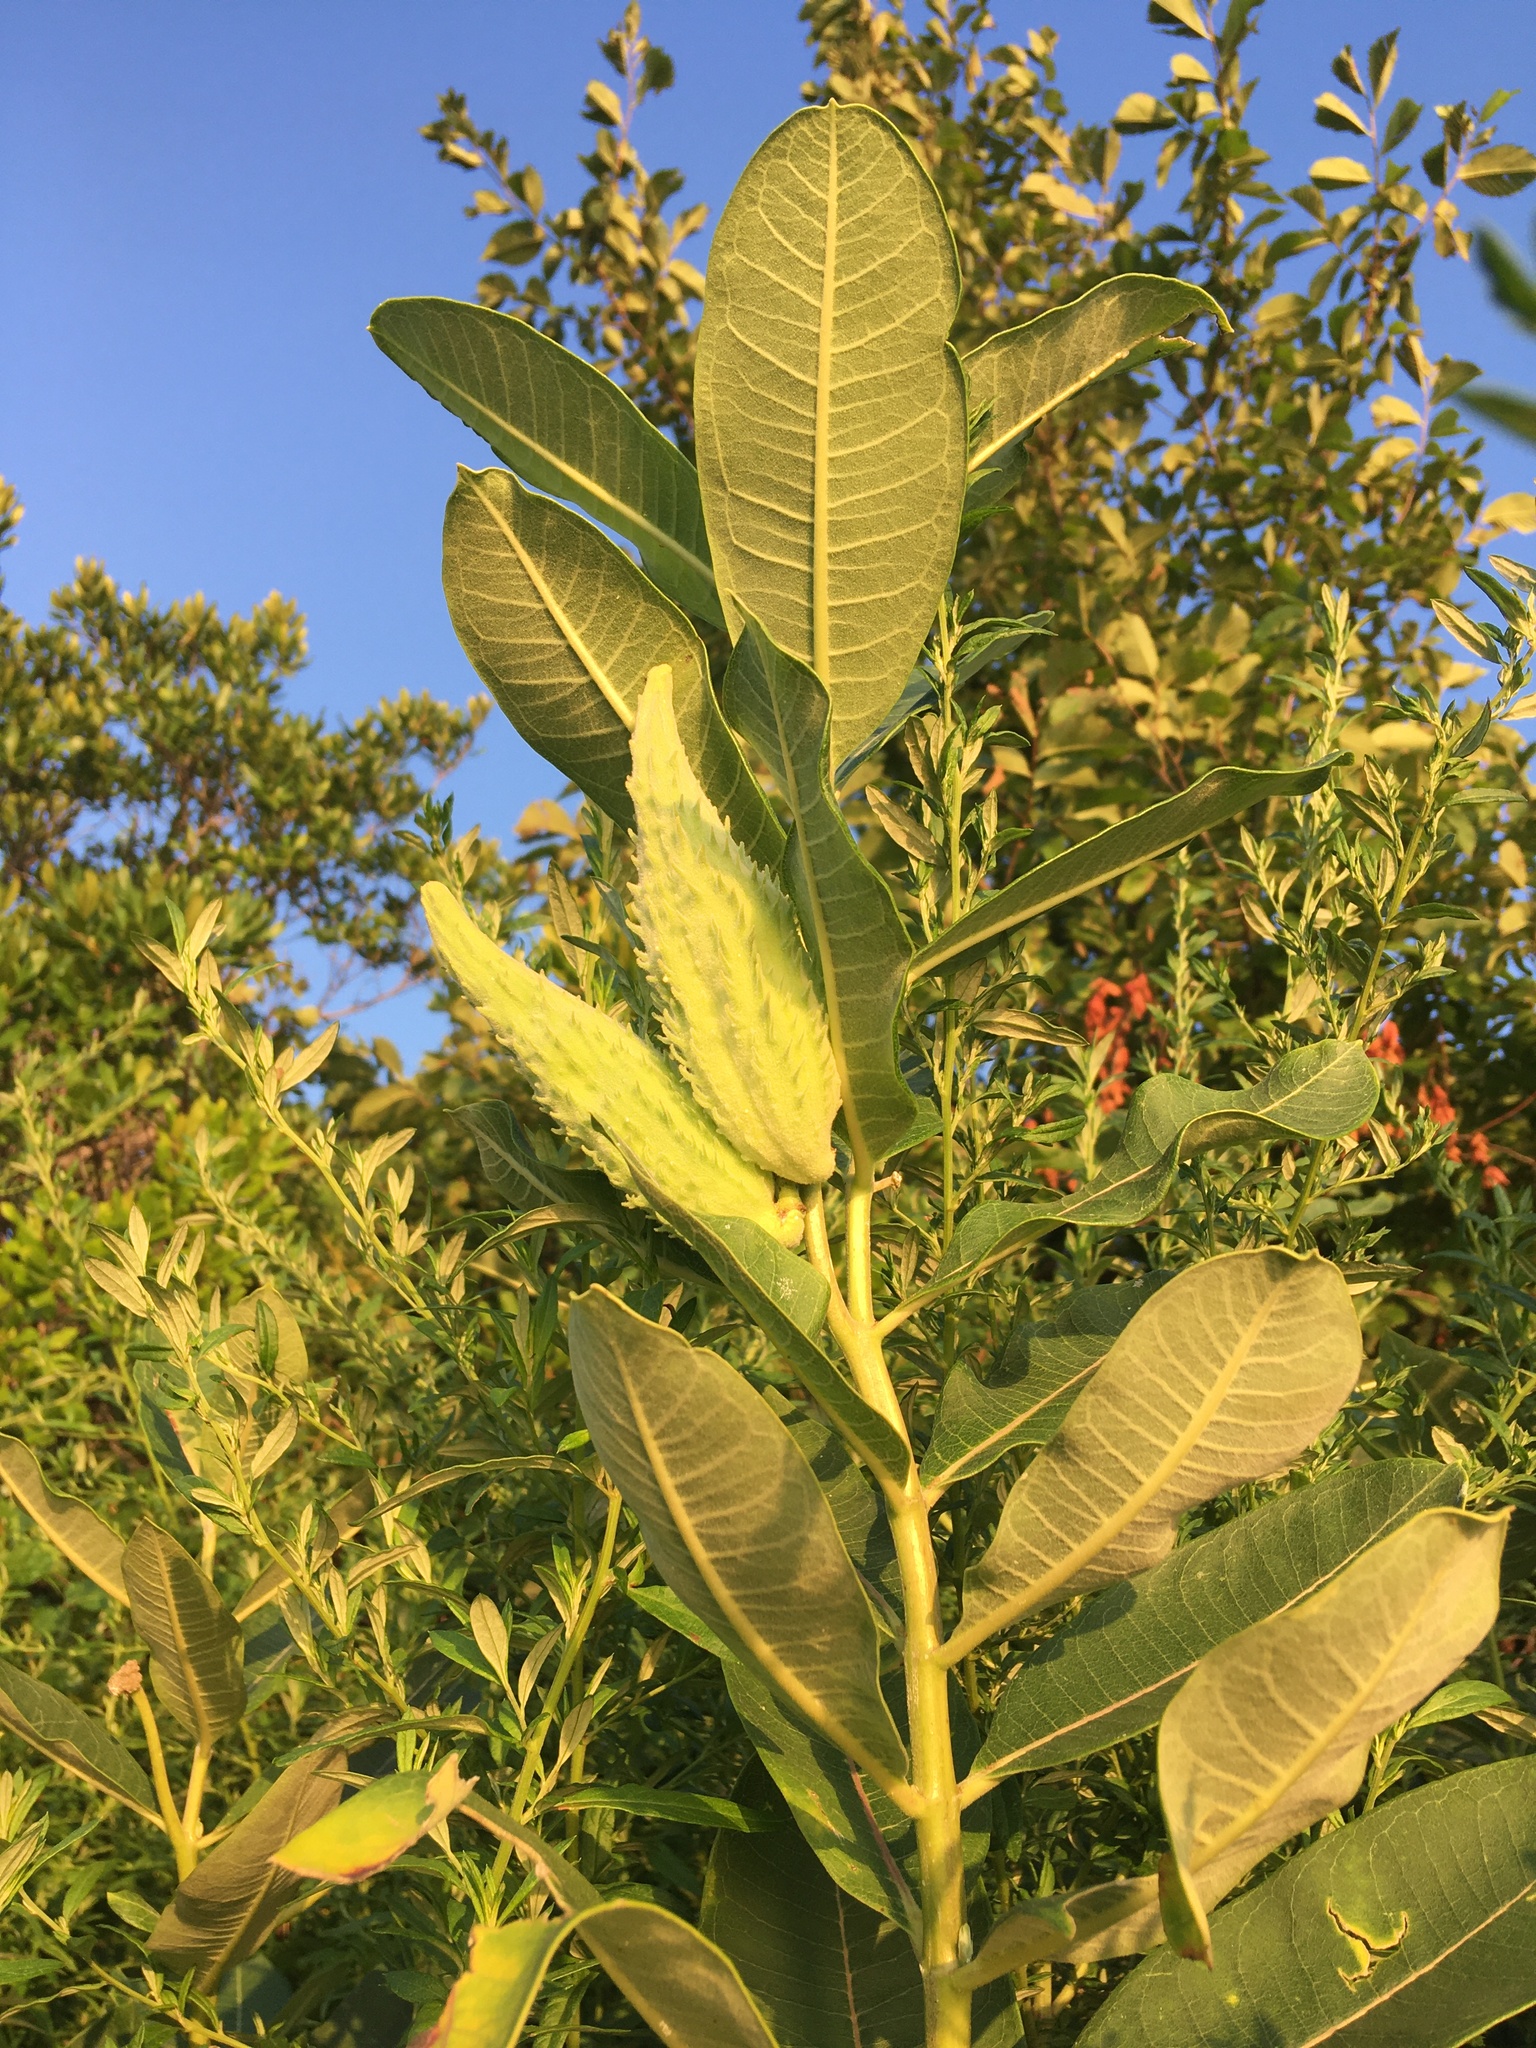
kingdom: Plantae
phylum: Tracheophyta
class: Magnoliopsida
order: Gentianales
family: Apocynaceae
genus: Asclepias
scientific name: Asclepias syriaca
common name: Common milkweed
